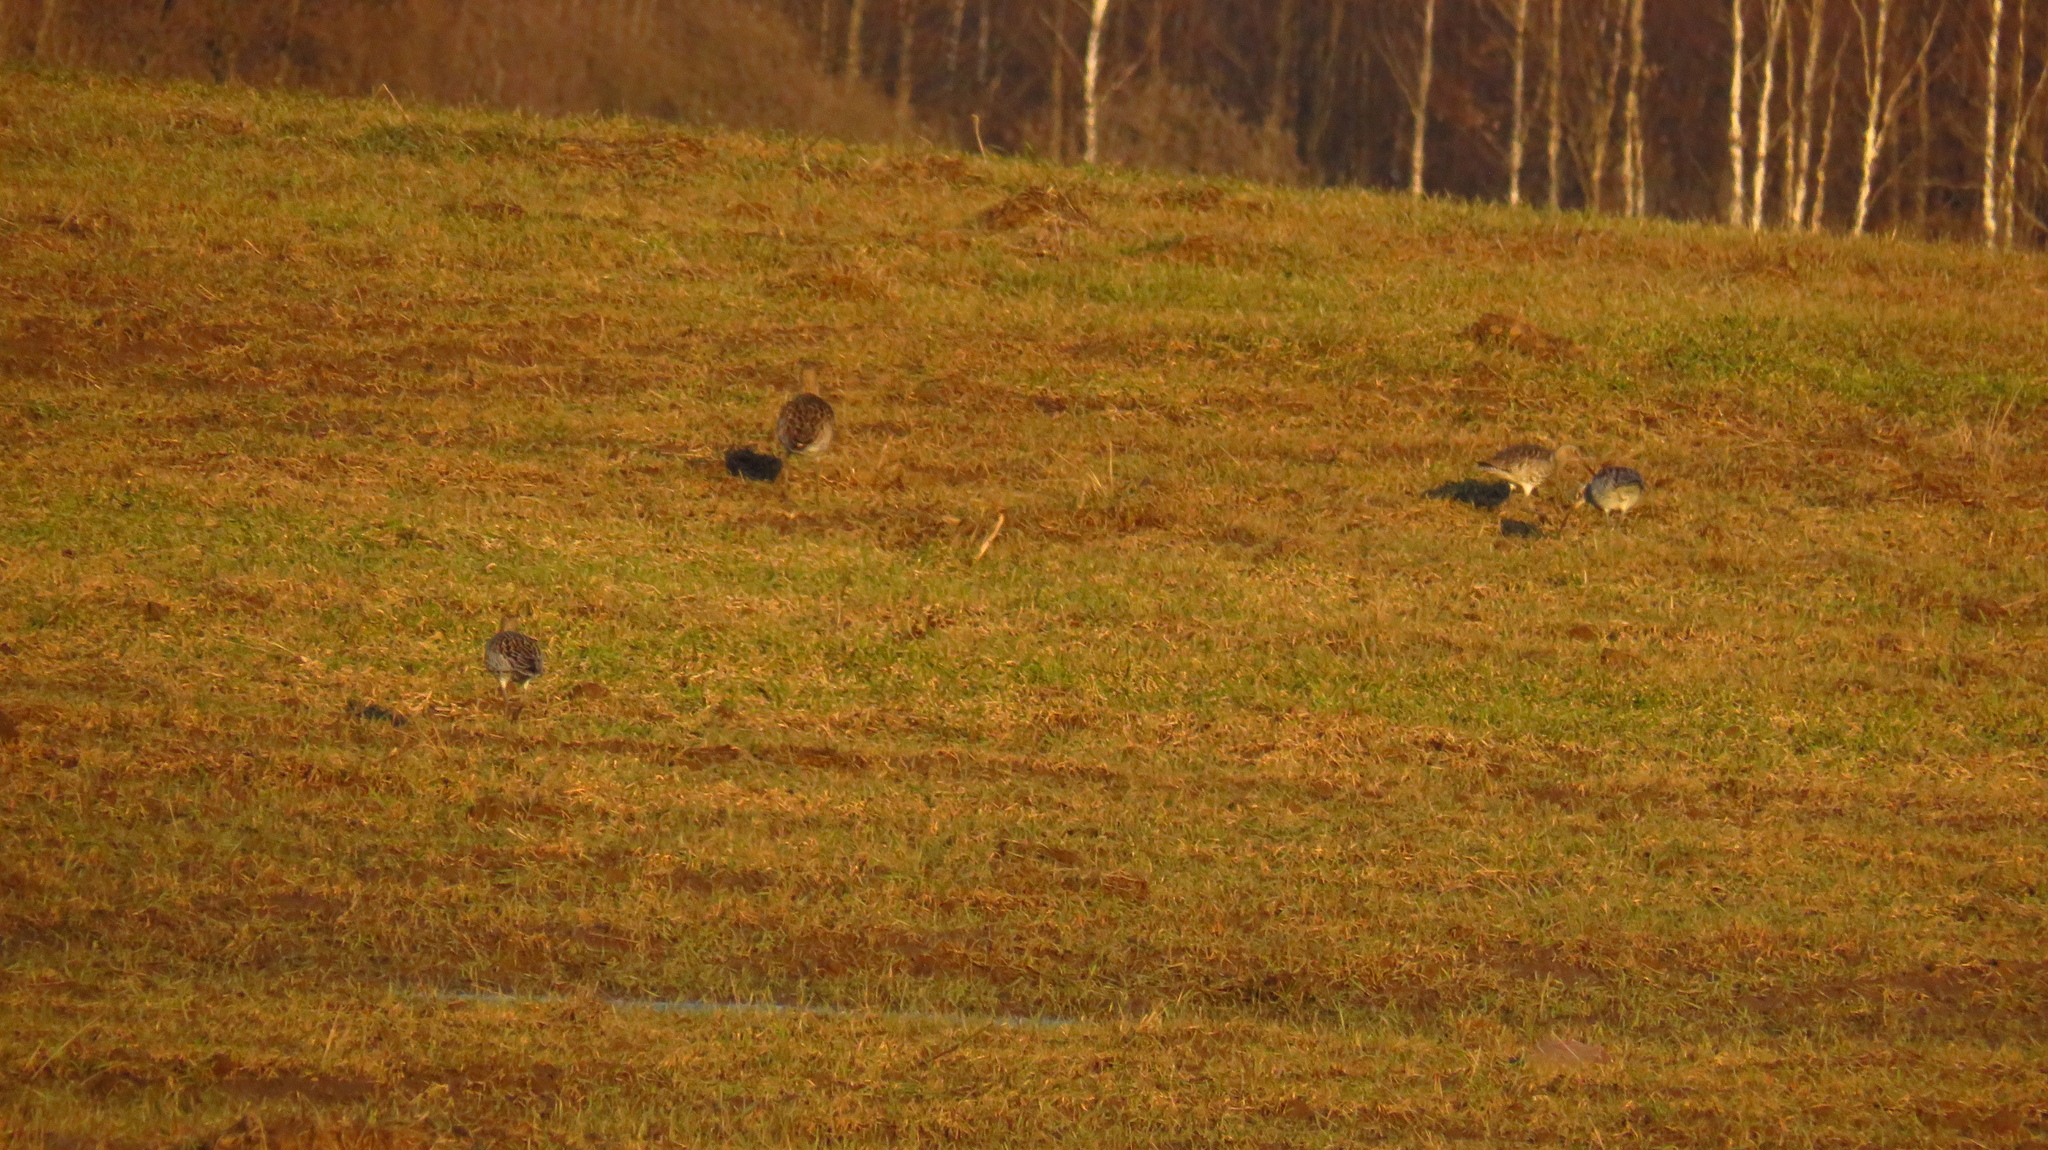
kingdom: Animalia
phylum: Chordata
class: Aves
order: Charadriiformes
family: Scolopacidae
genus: Numenius
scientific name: Numenius arquata
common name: Eurasian curlew
